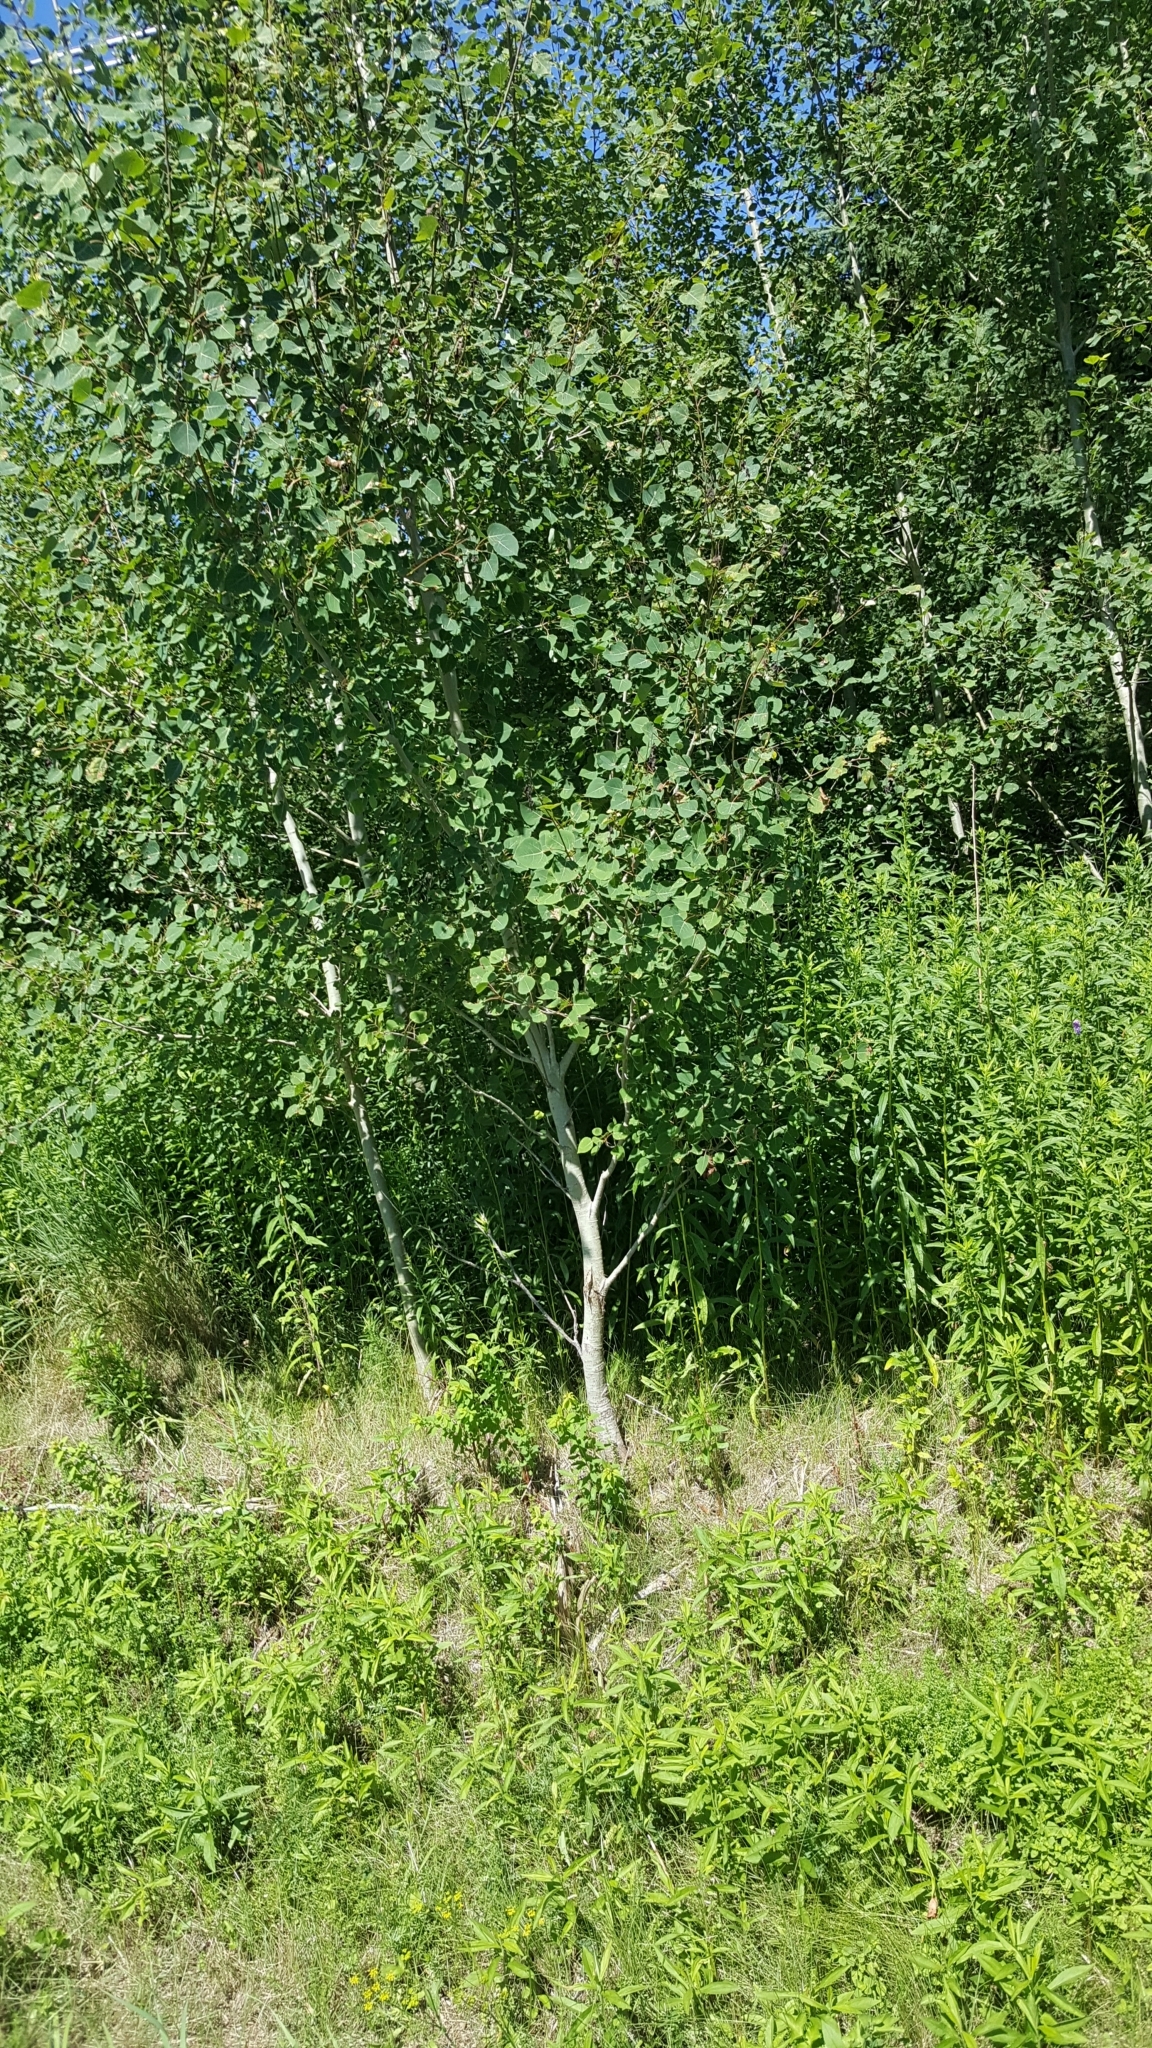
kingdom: Plantae
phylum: Tracheophyta
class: Magnoliopsida
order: Malpighiales
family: Salicaceae
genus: Populus
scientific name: Populus tremuloides
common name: Quaking aspen
